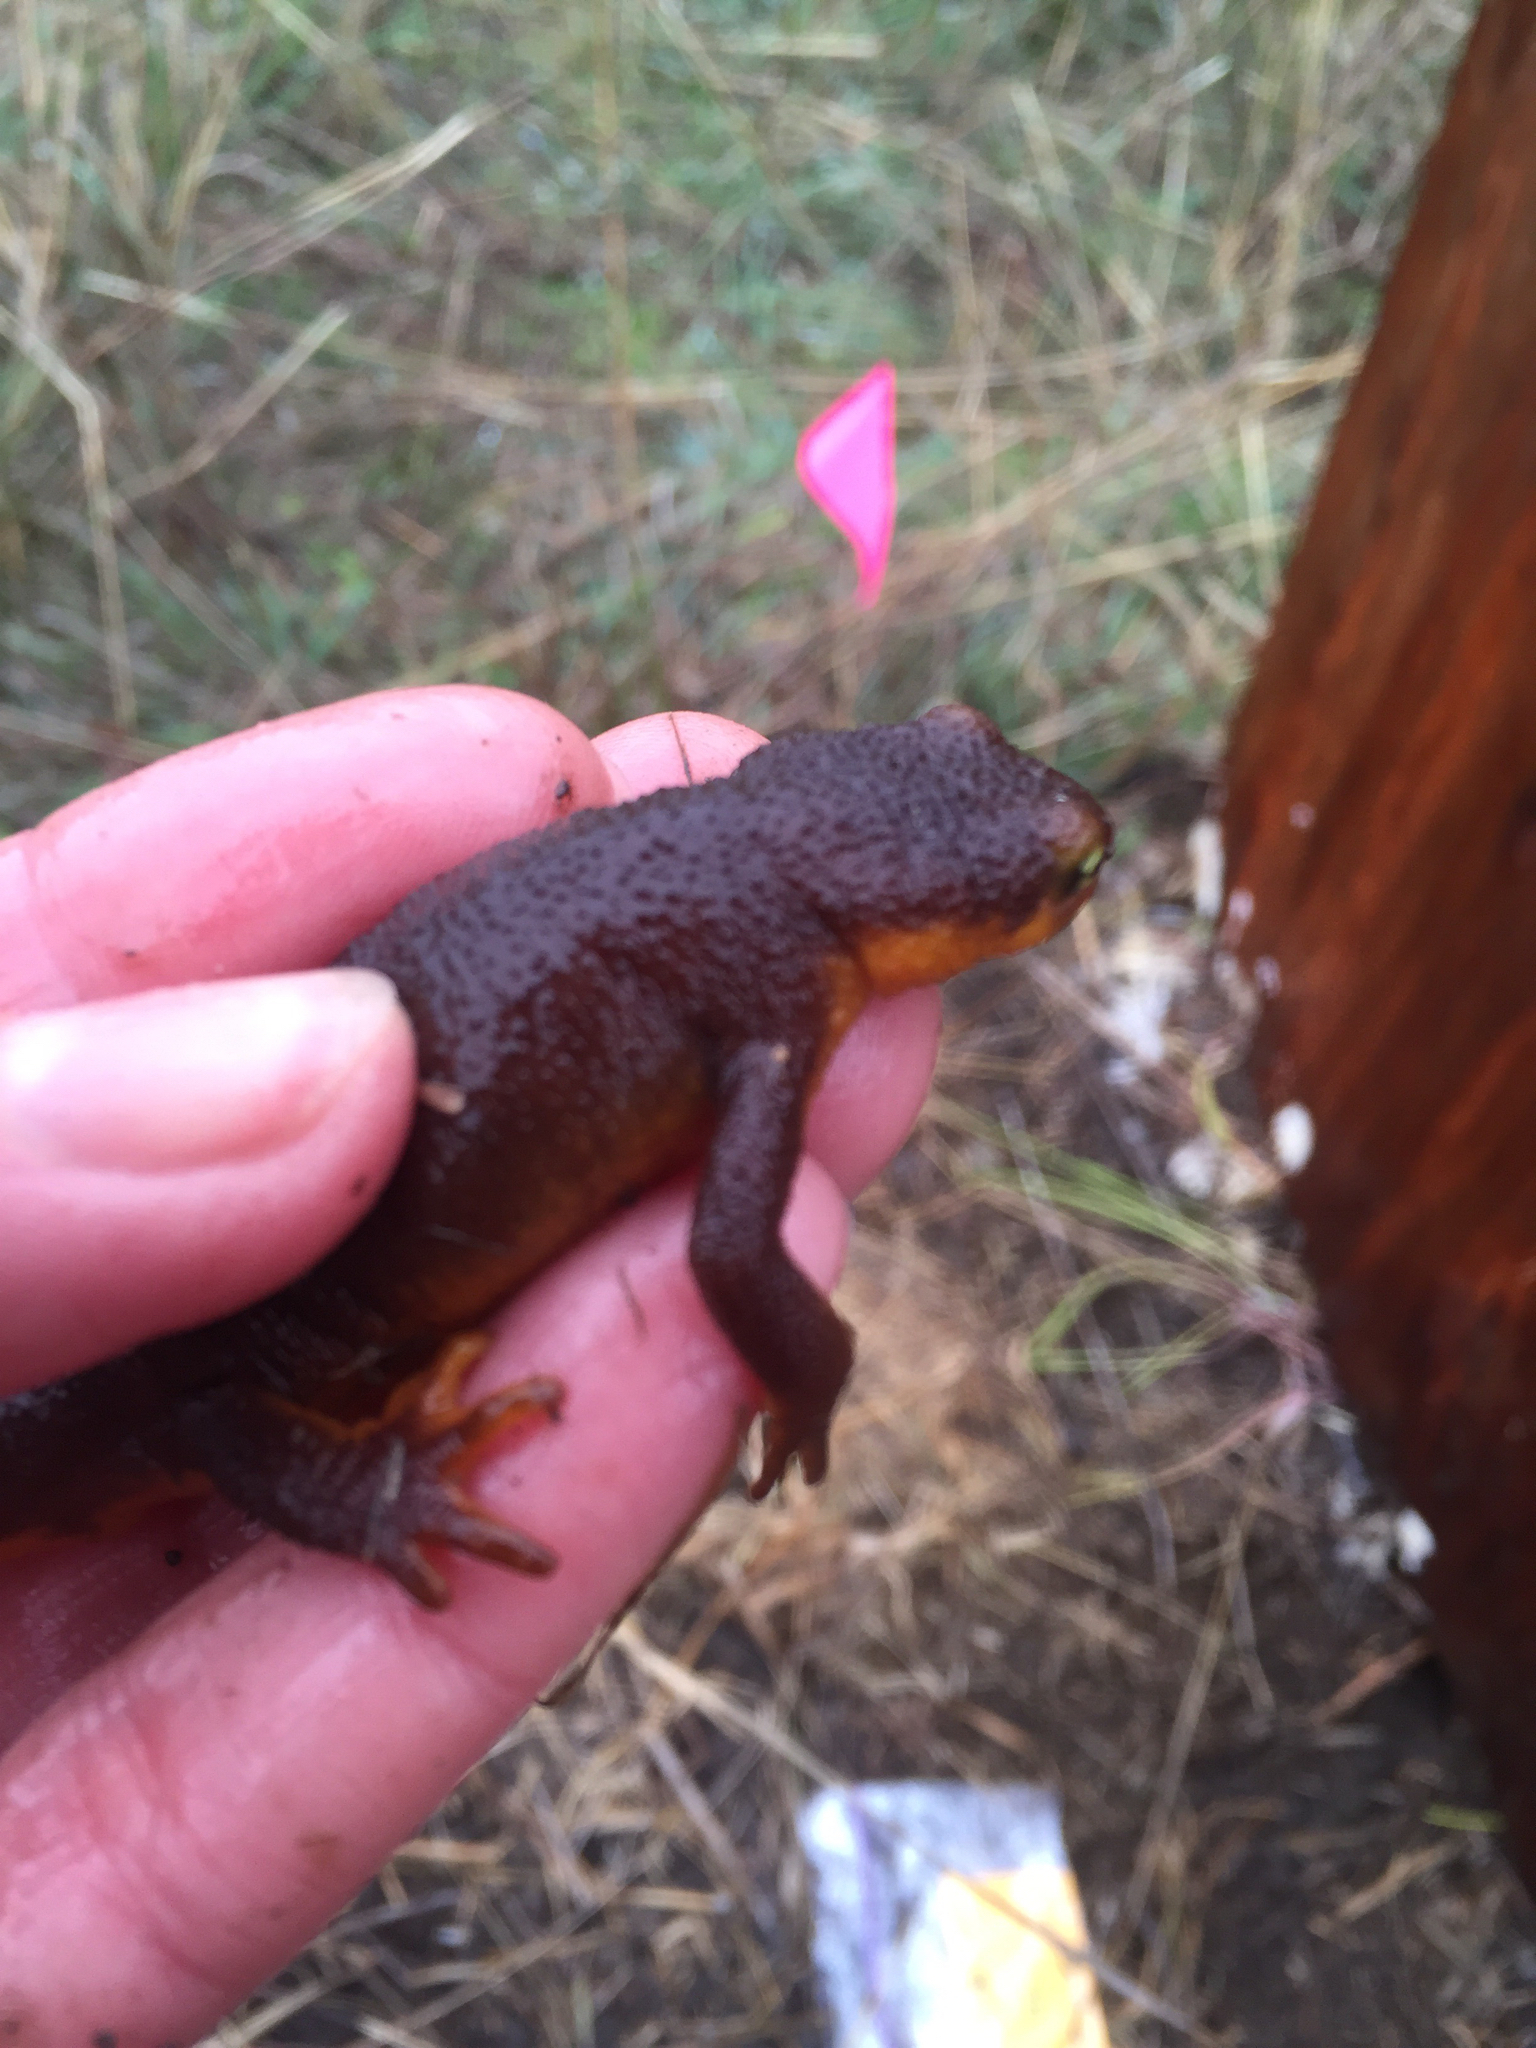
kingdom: Animalia
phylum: Chordata
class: Amphibia
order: Caudata
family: Salamandridae
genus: Taricha
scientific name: Taricha torosa
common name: California newt
